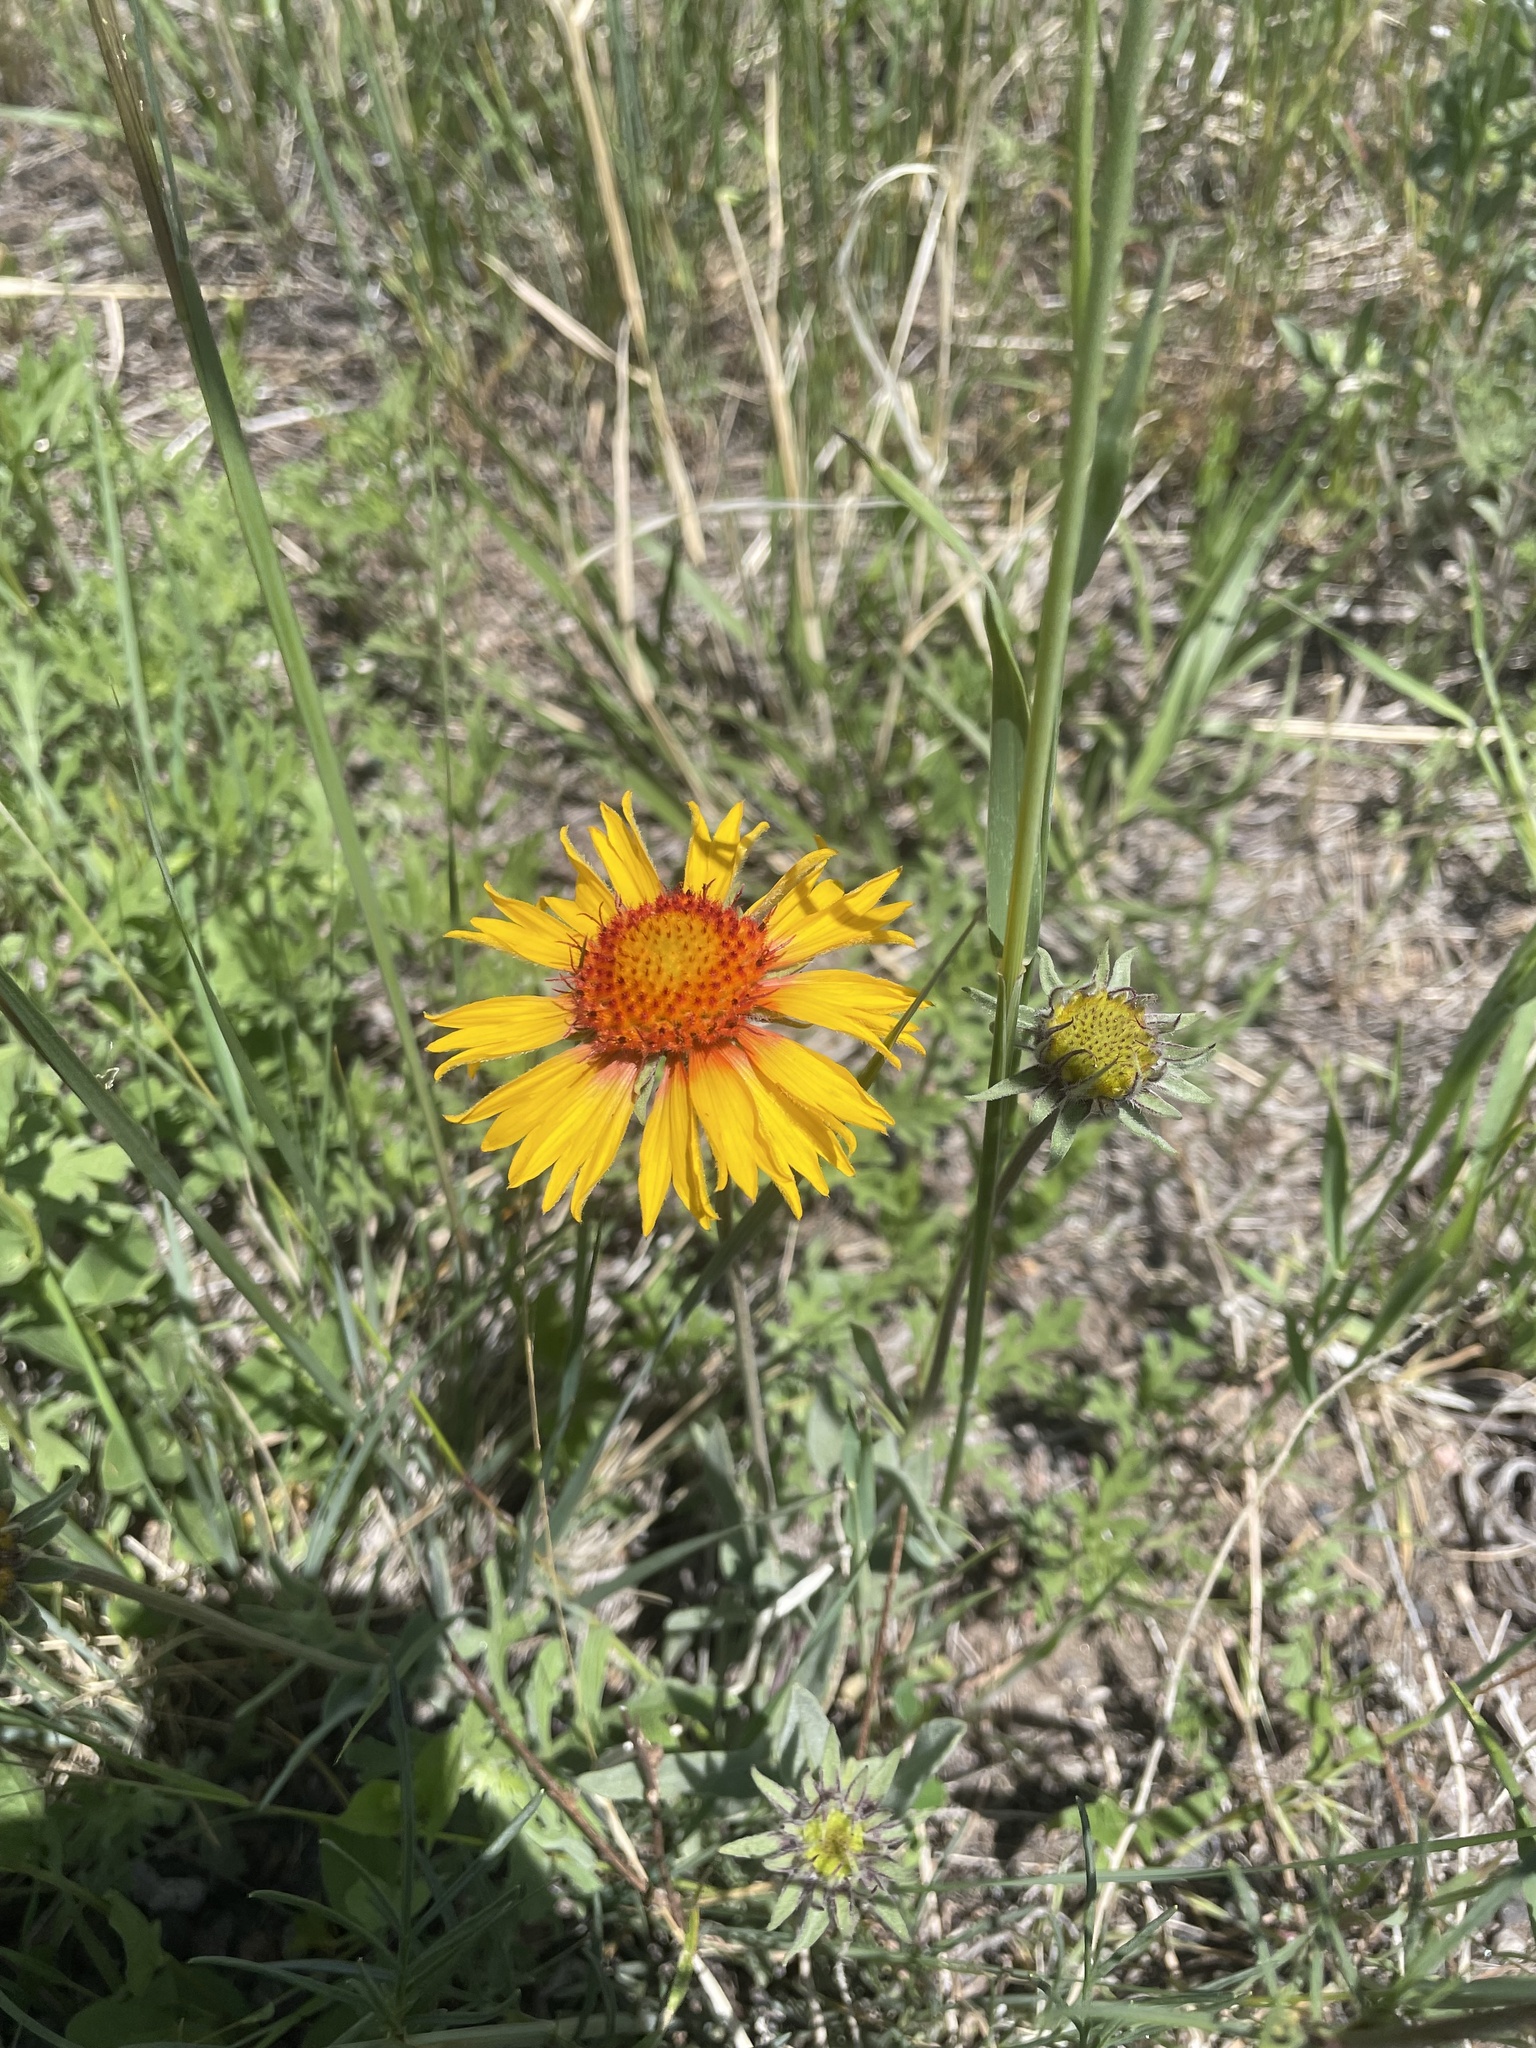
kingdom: Plantae
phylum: Tracheophyta
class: Magnoliopsida
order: Asterales
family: Asteraceae
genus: Gaillardia
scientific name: Gaillardia aristata
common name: Blanket-flower
